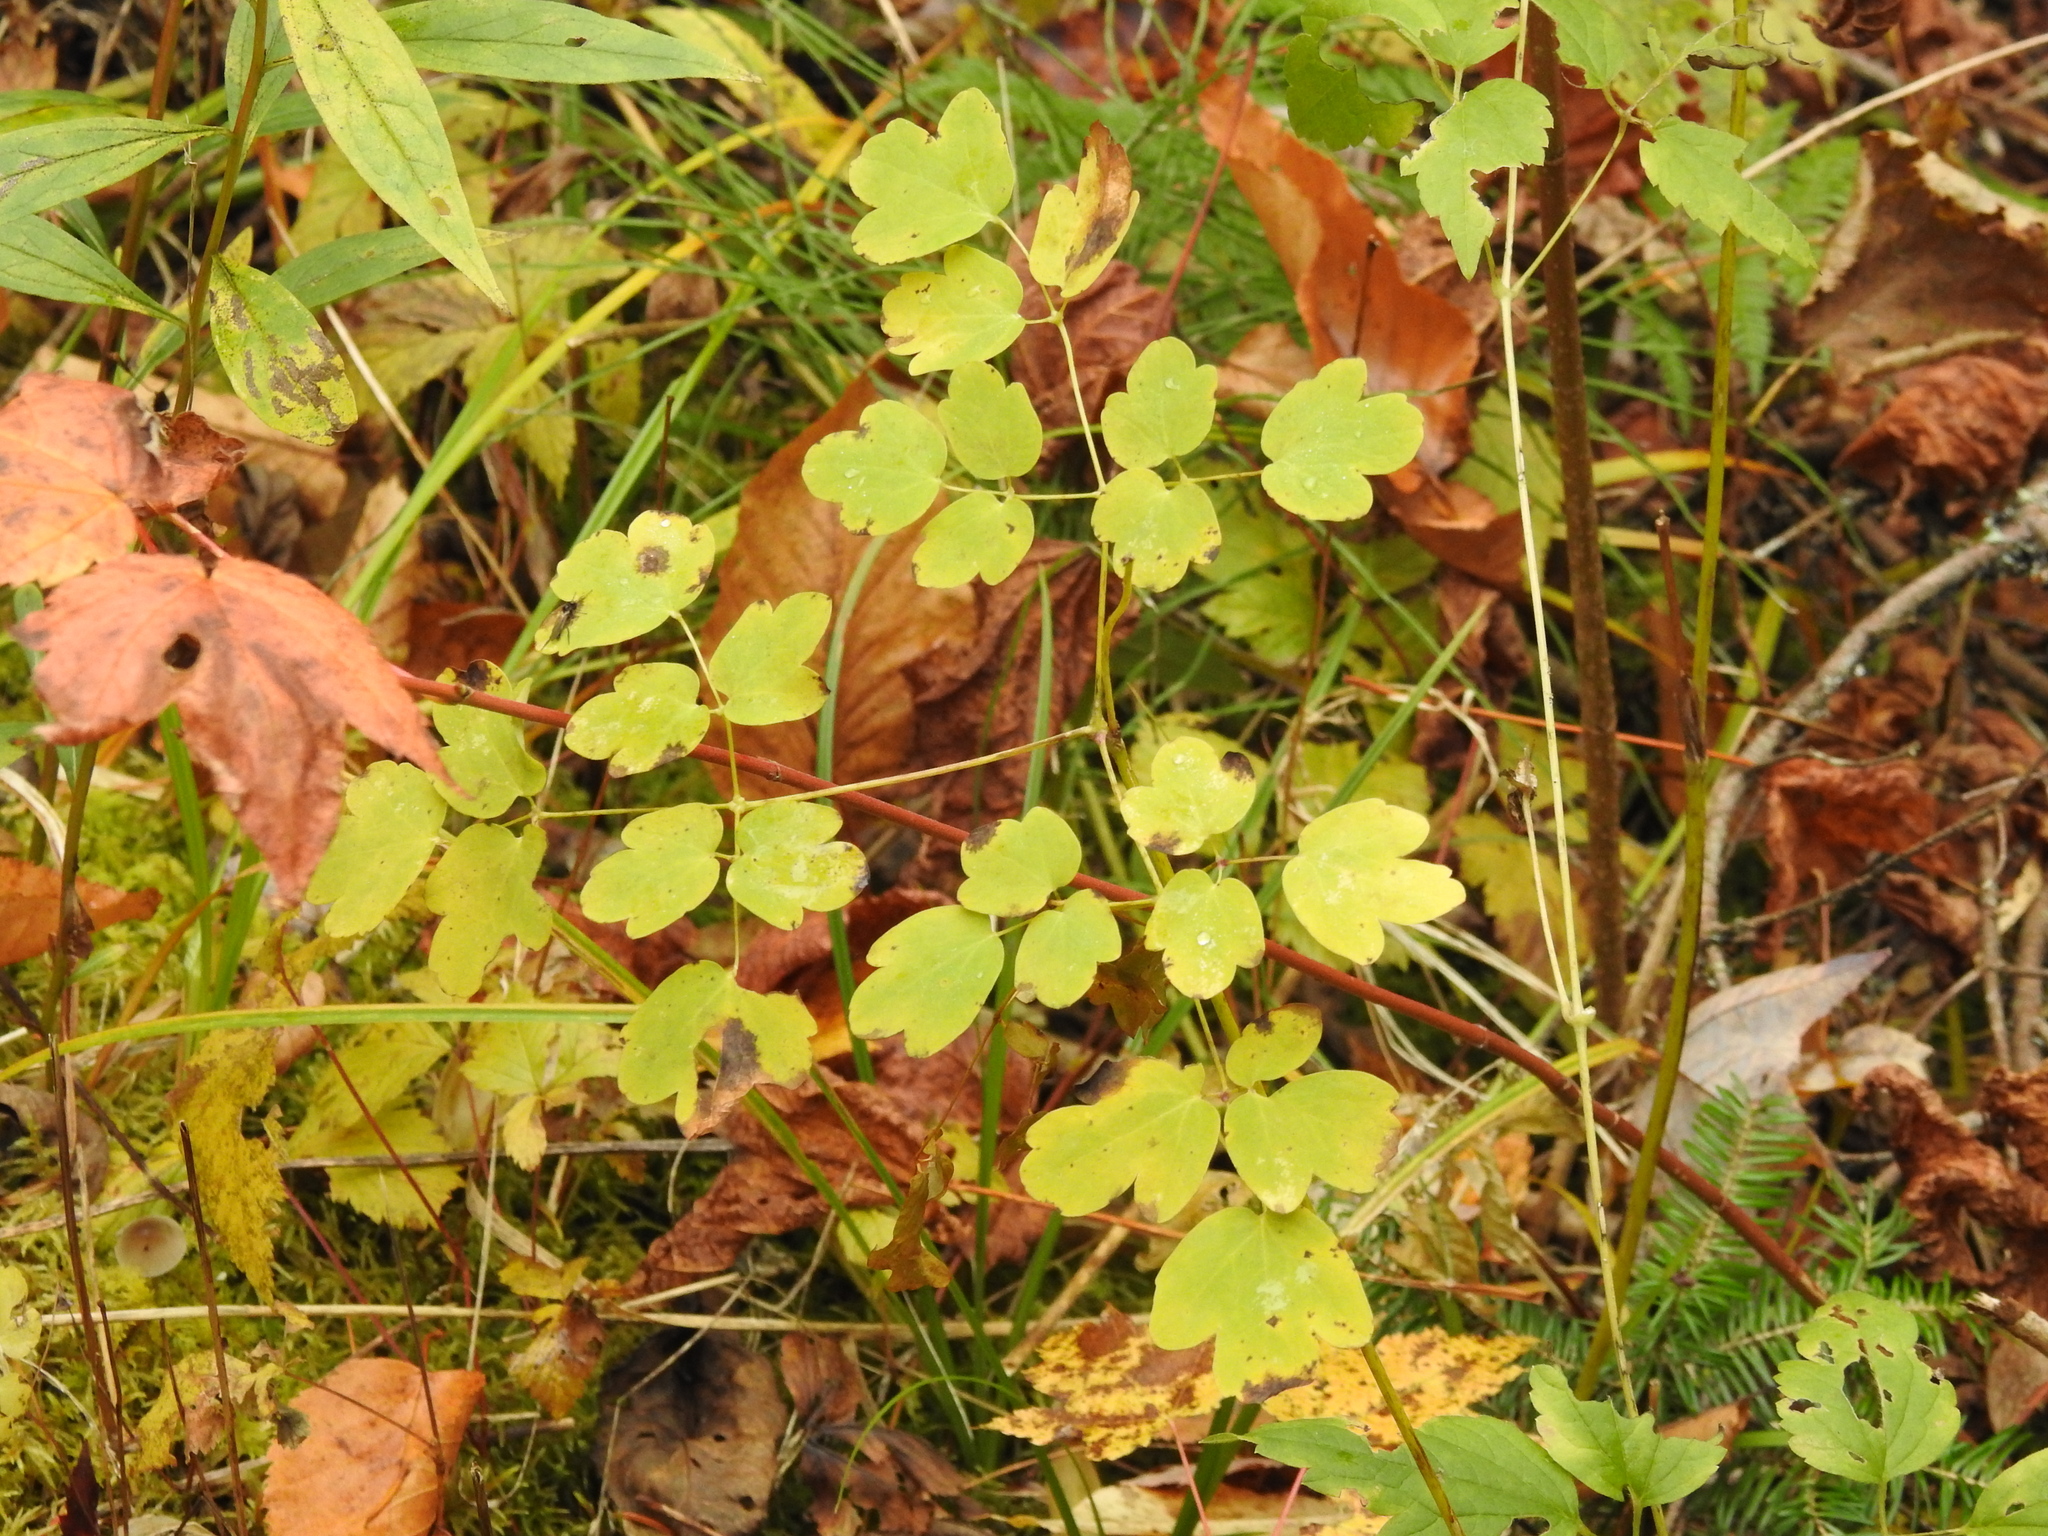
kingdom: Plantae
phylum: Tracheophyta
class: Magnoliopsida
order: Ranunculales
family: Ranunculaceae
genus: Thalictrum
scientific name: Thalictrum pubescens
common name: King-of-the-meadow
